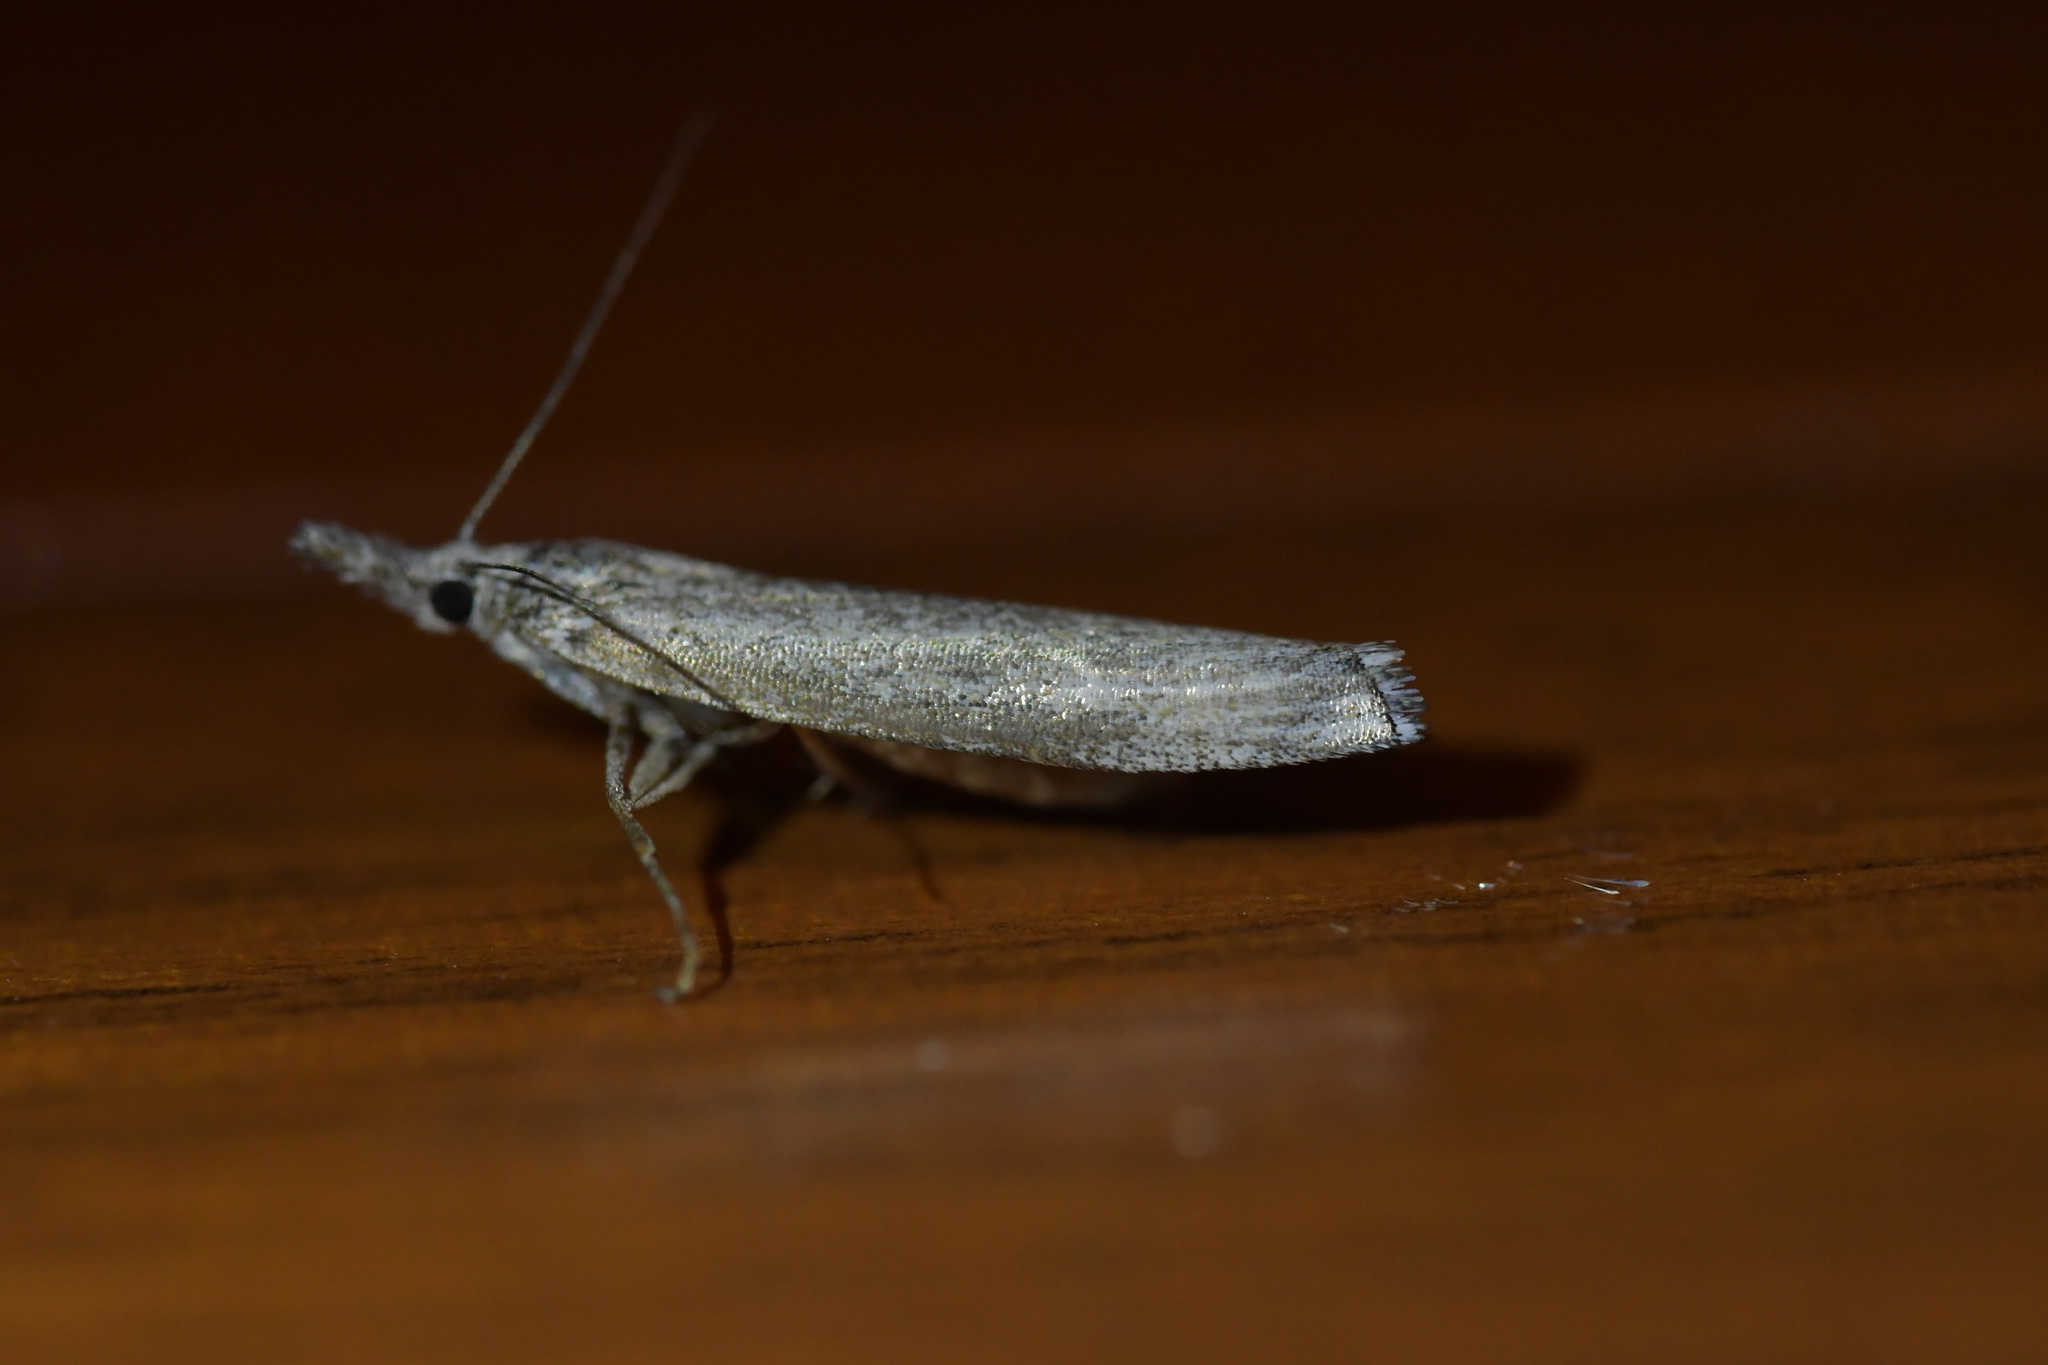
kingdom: Animalia
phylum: Arthropoda
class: Insecta
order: Lepidoptera
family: Crambidae
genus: Orocrambus
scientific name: Orocrambus cyclopicus
